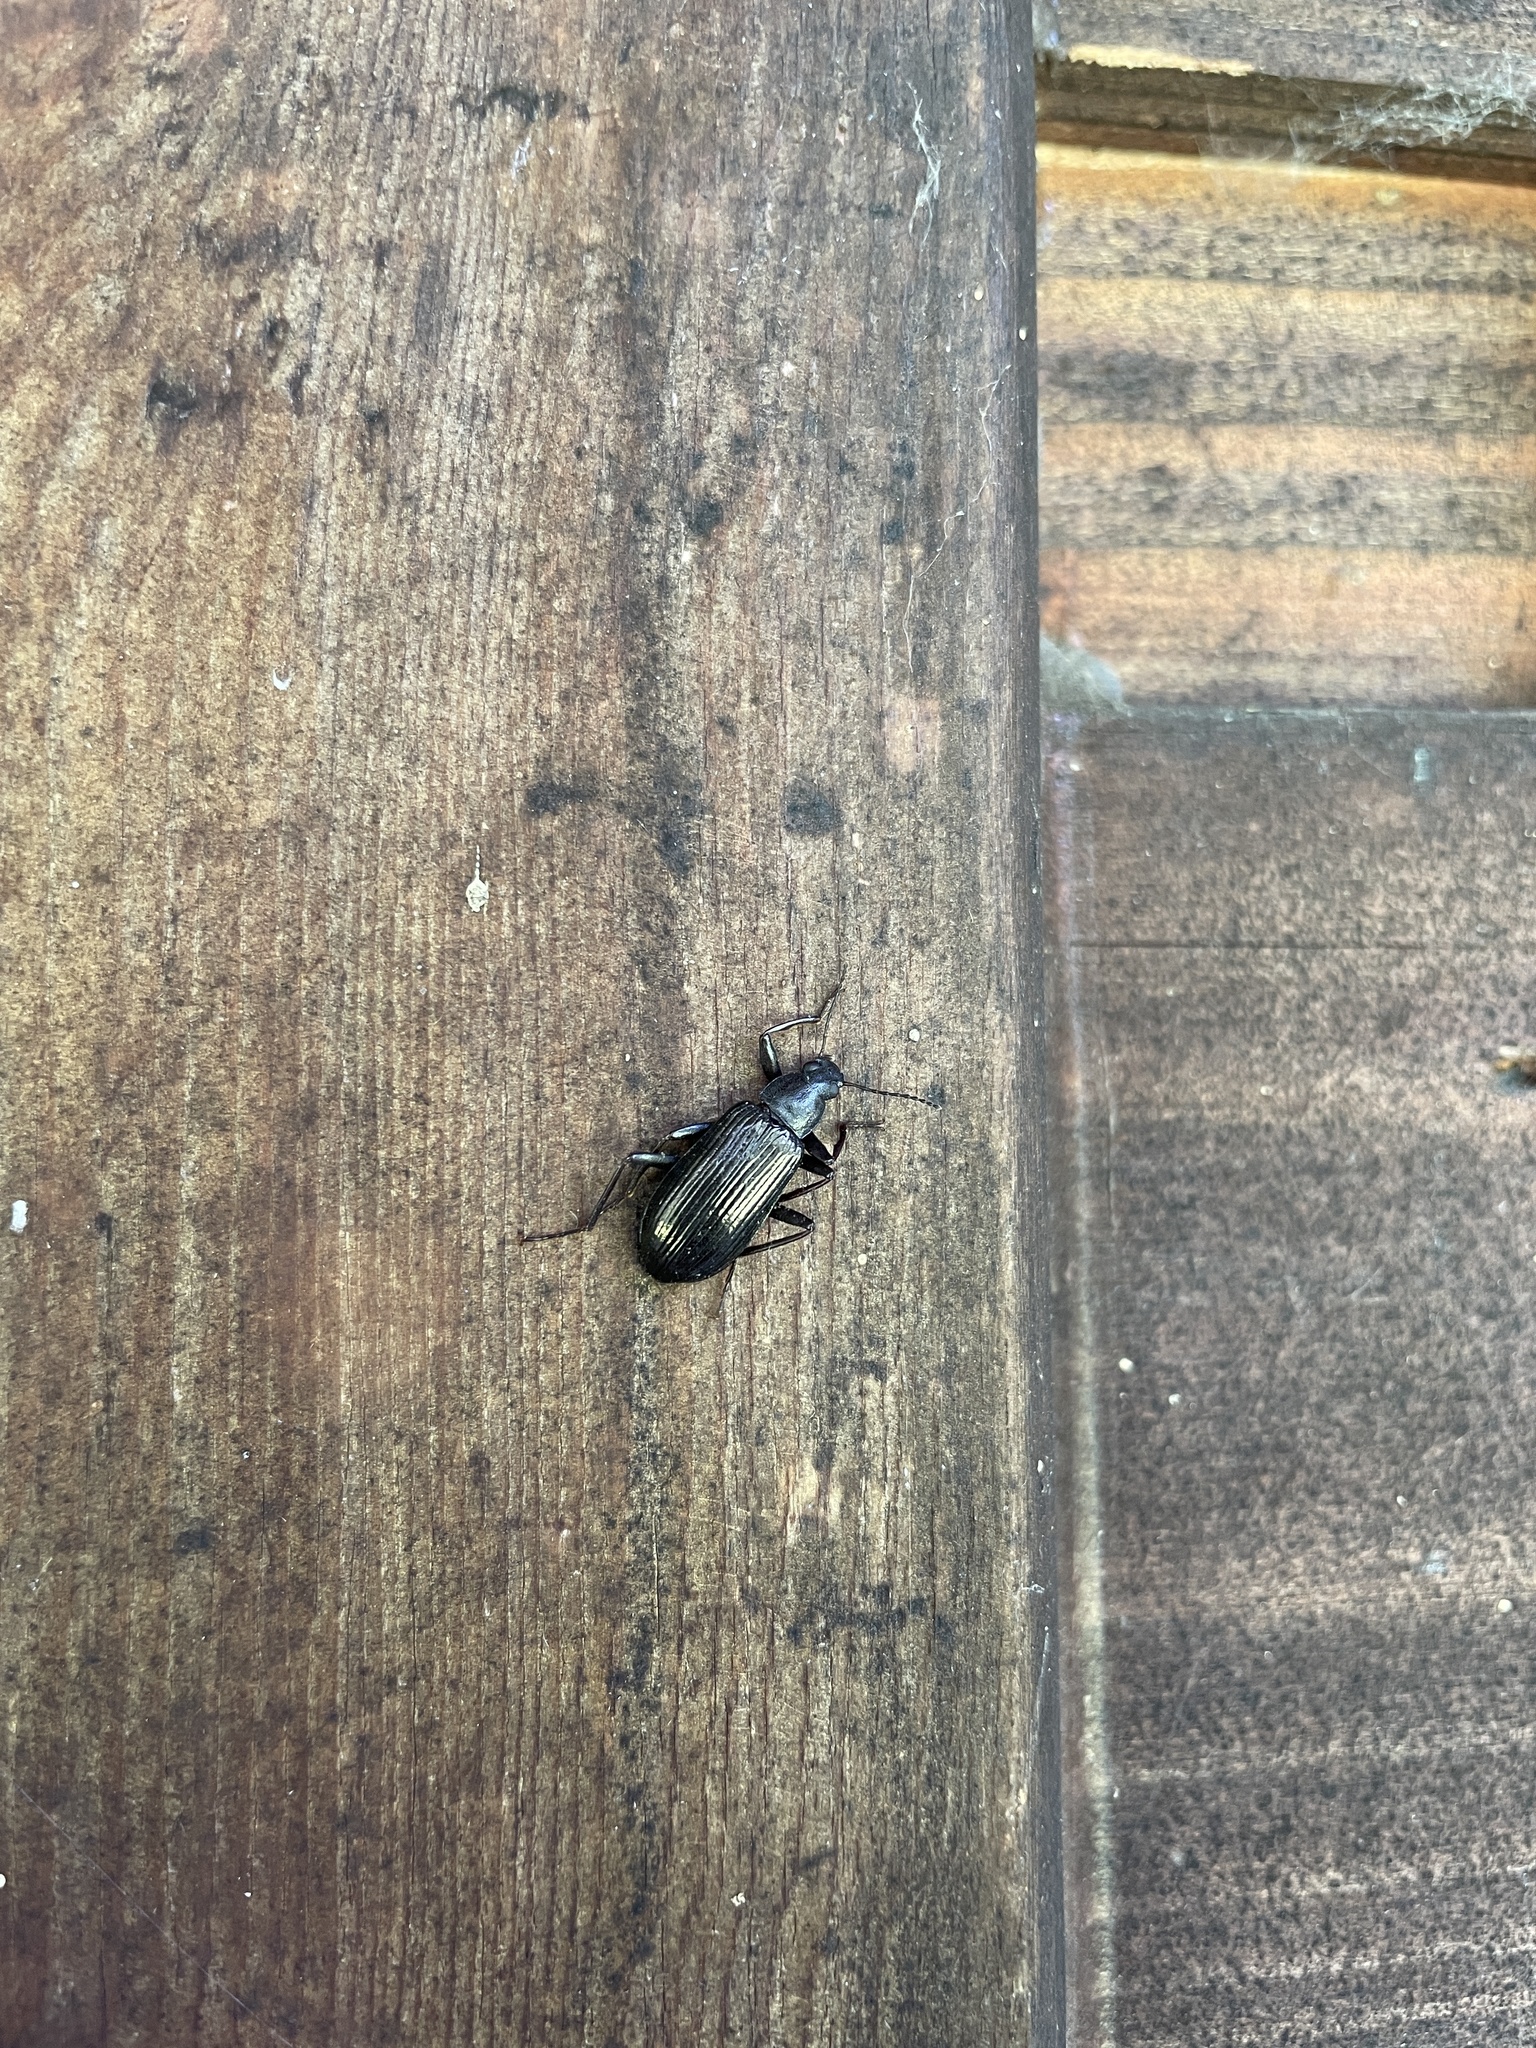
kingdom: Animalia
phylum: Arthropoda
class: Insecta
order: Coleoptera
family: Tenebrionidae
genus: Xylopinus
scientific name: Xylopinus aenescens
